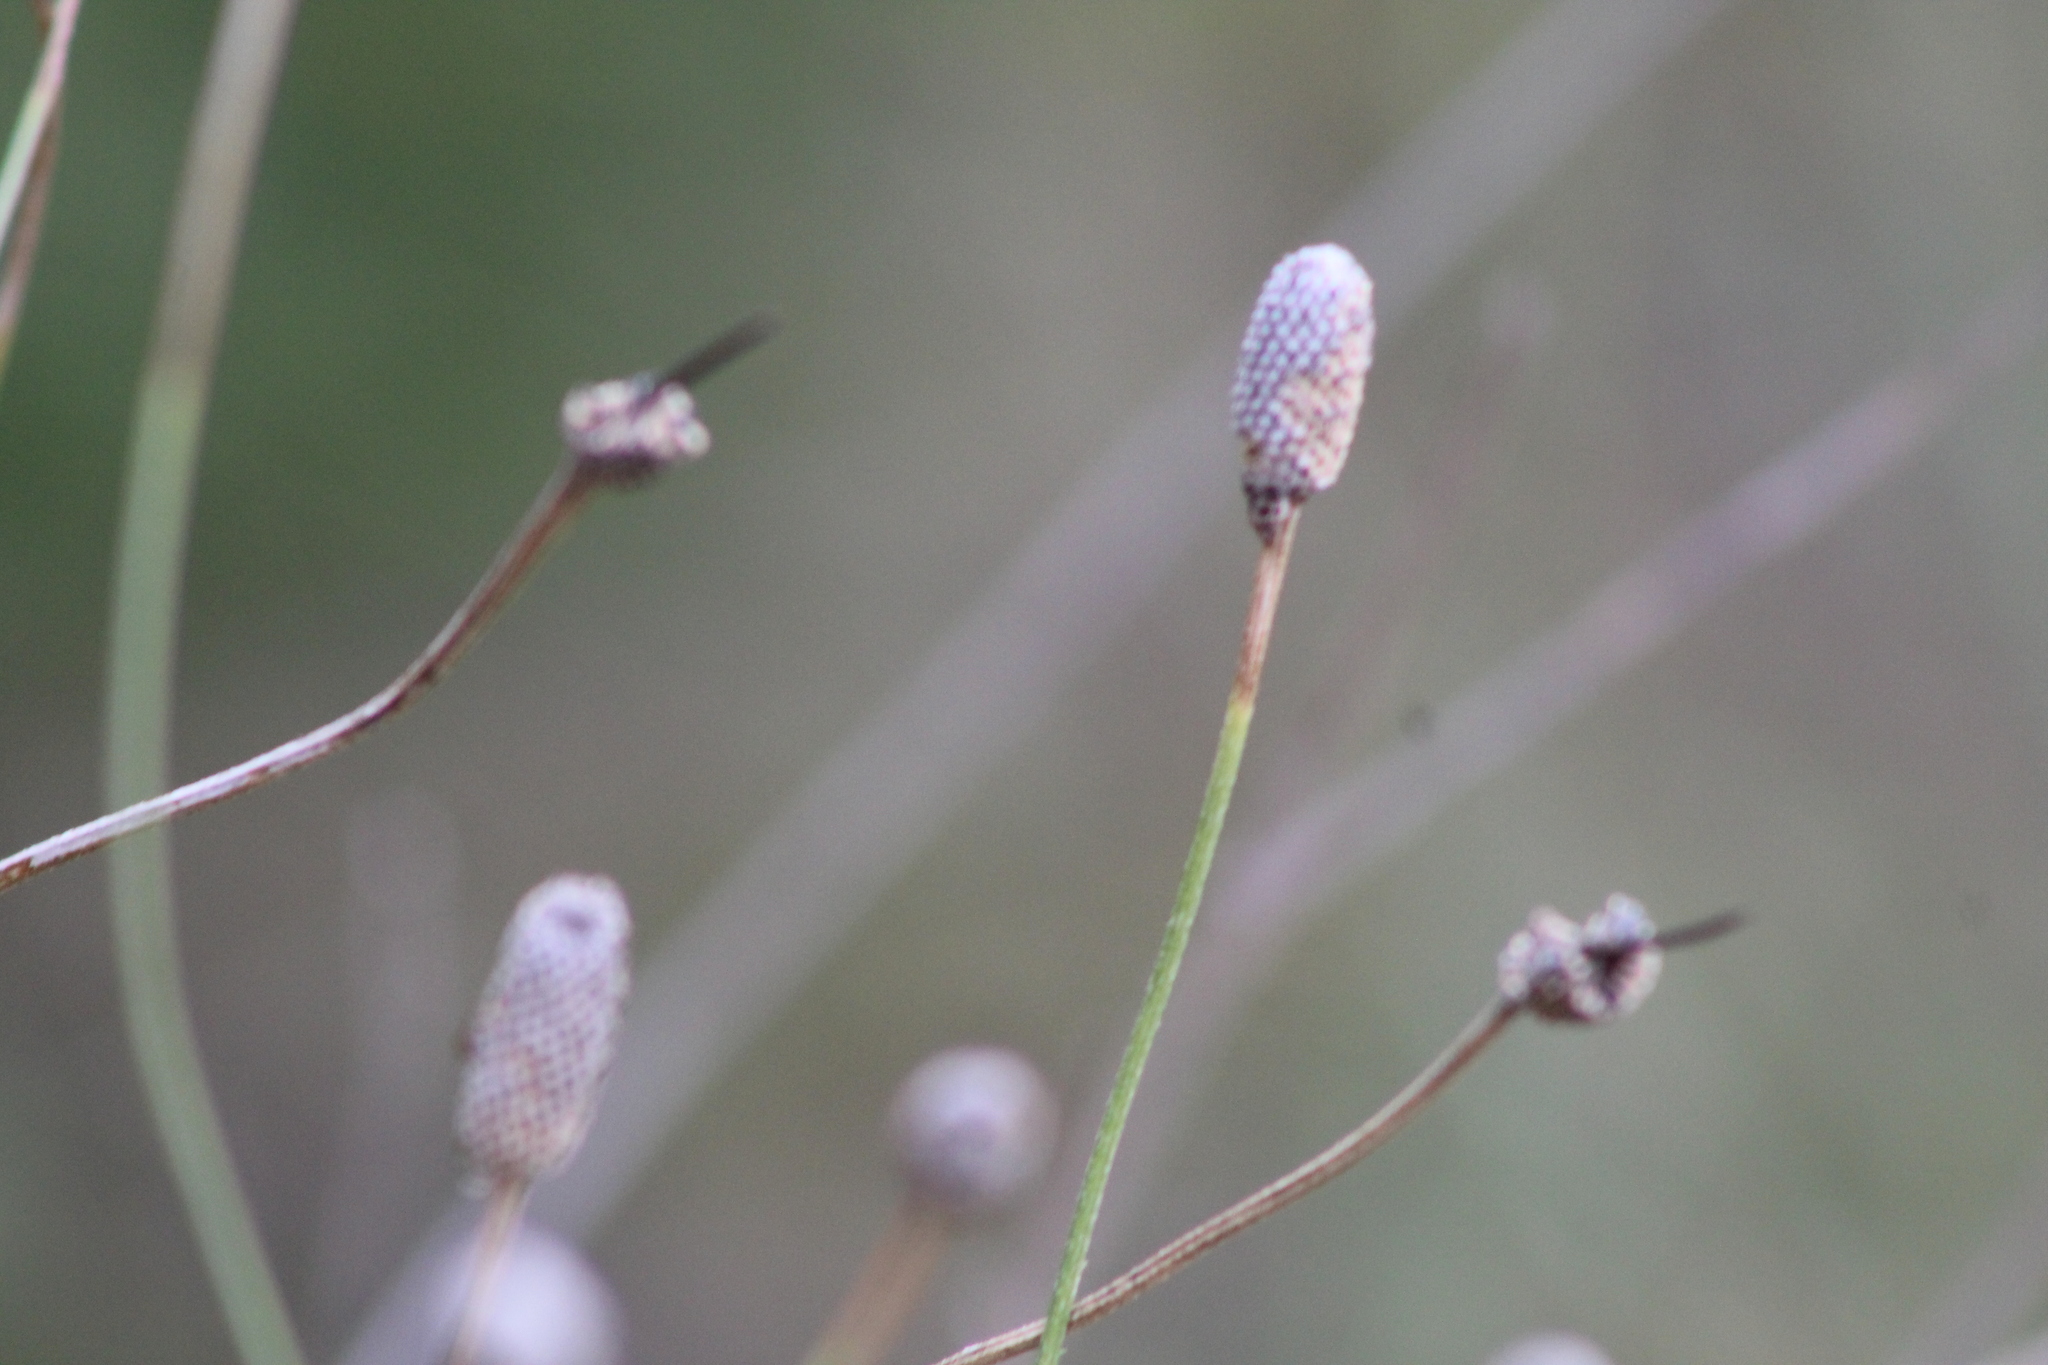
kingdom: Plantae
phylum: Tracheophyta
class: Magnoliopsida
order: Asterales
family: Asteraceae
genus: Ratibida
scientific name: Ratibida columnifera
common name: Prairie coneflower
